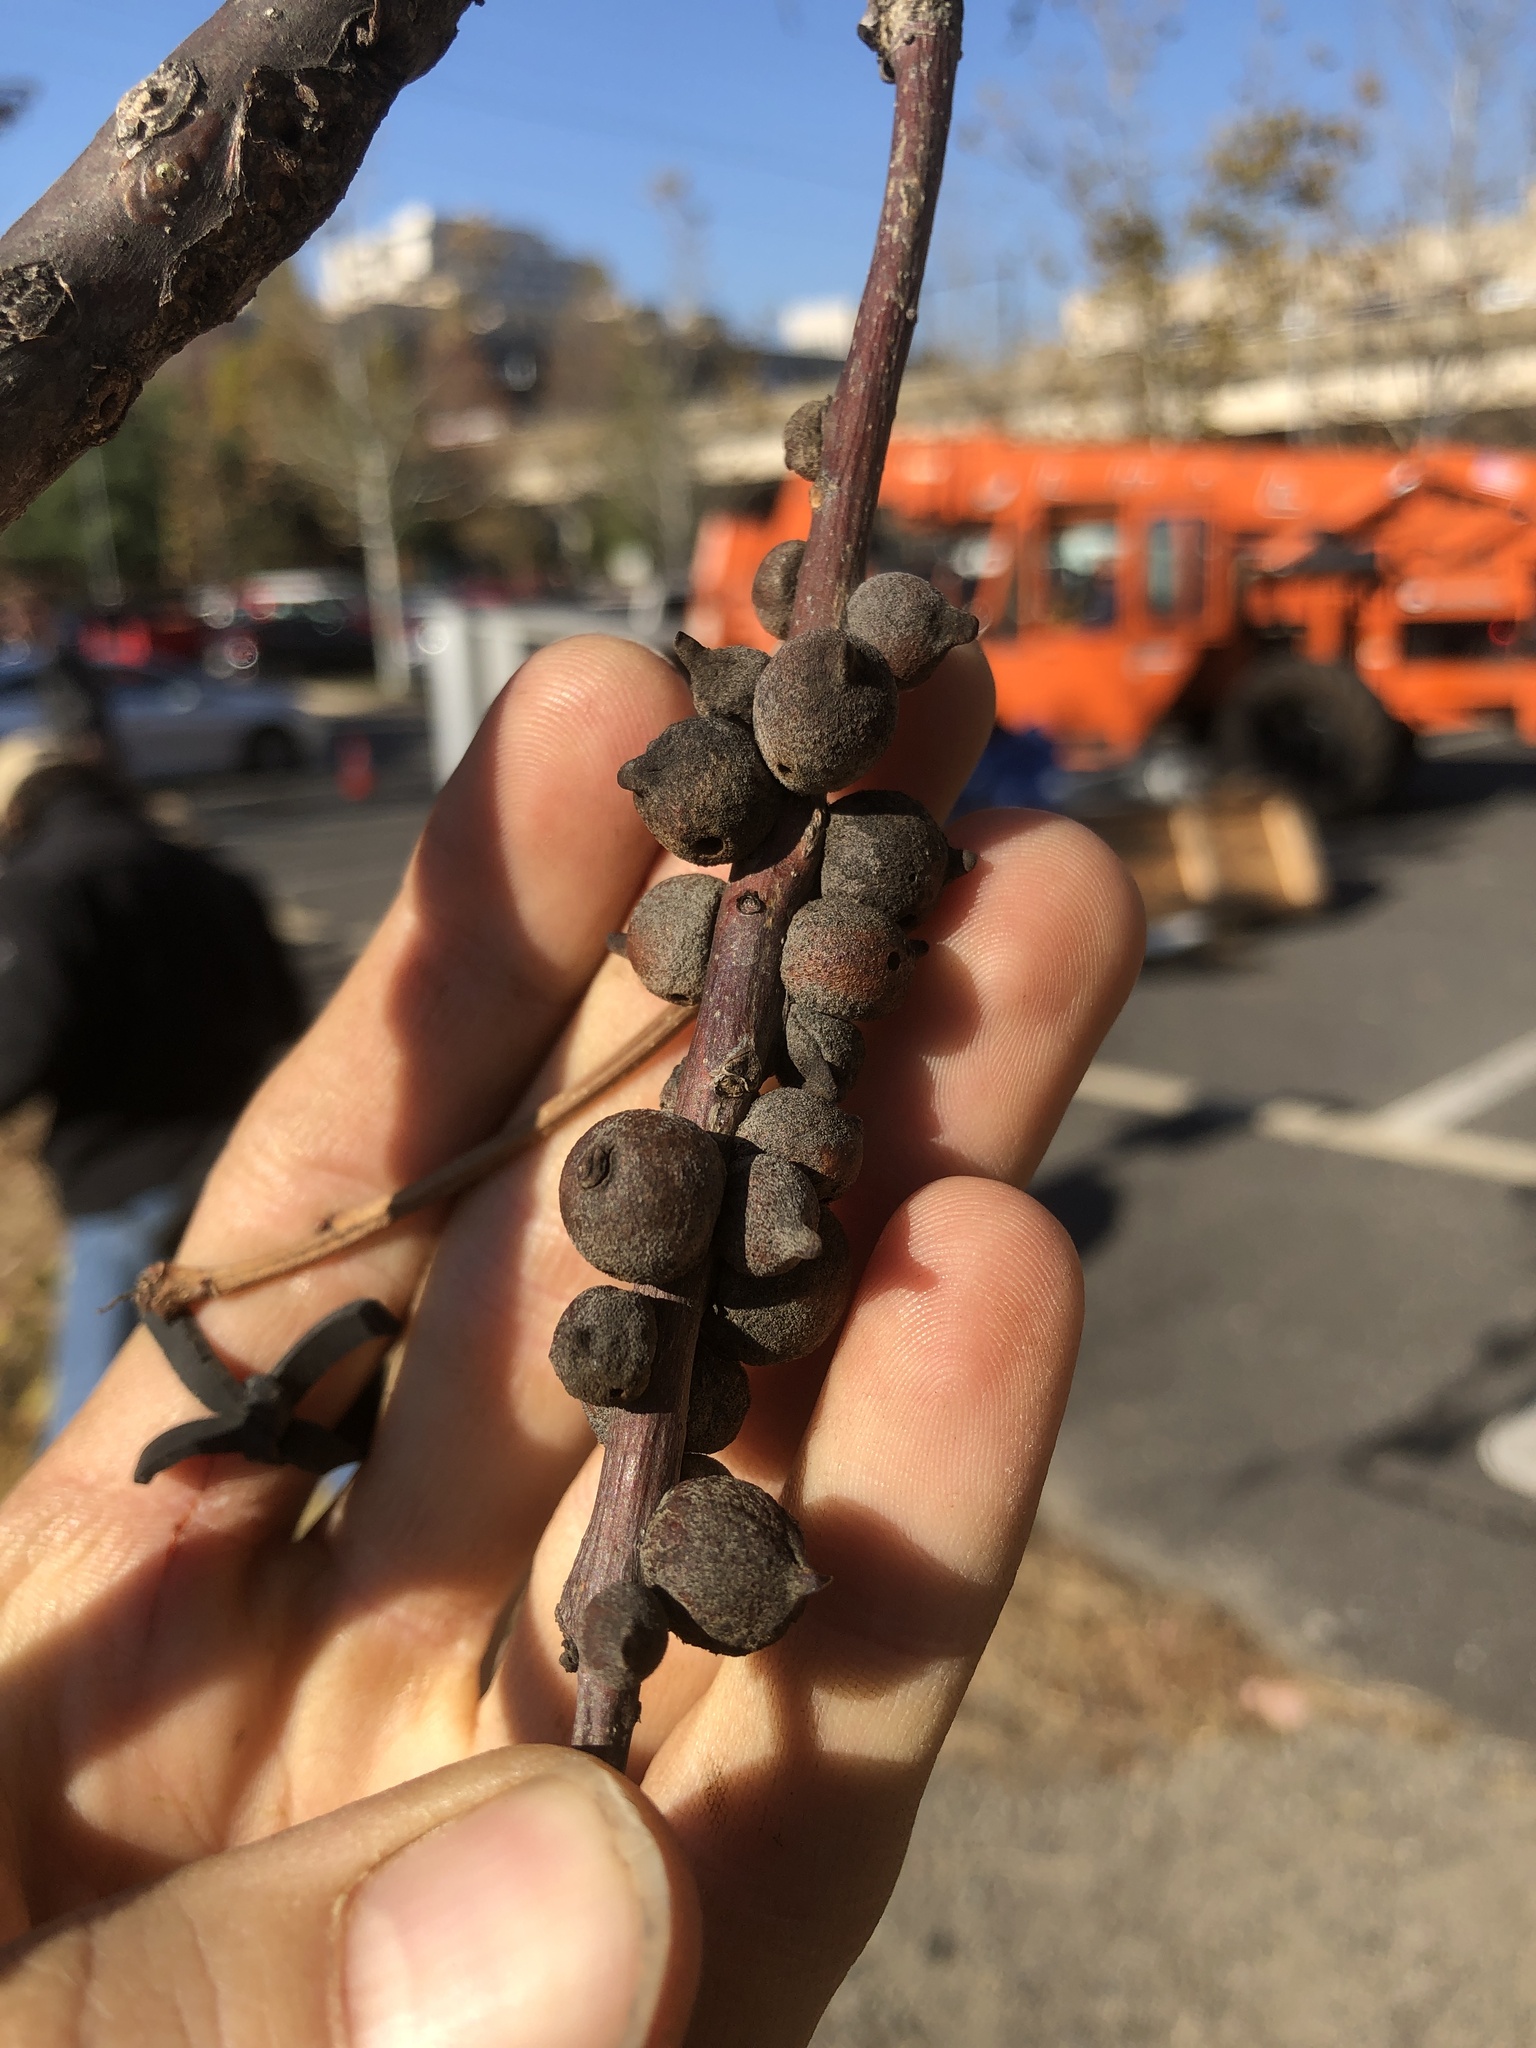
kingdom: Animalia
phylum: Arthropoda
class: Insecta
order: Hymenoptera
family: Cynipidae
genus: Disholcaspis
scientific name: Disholcaspis
